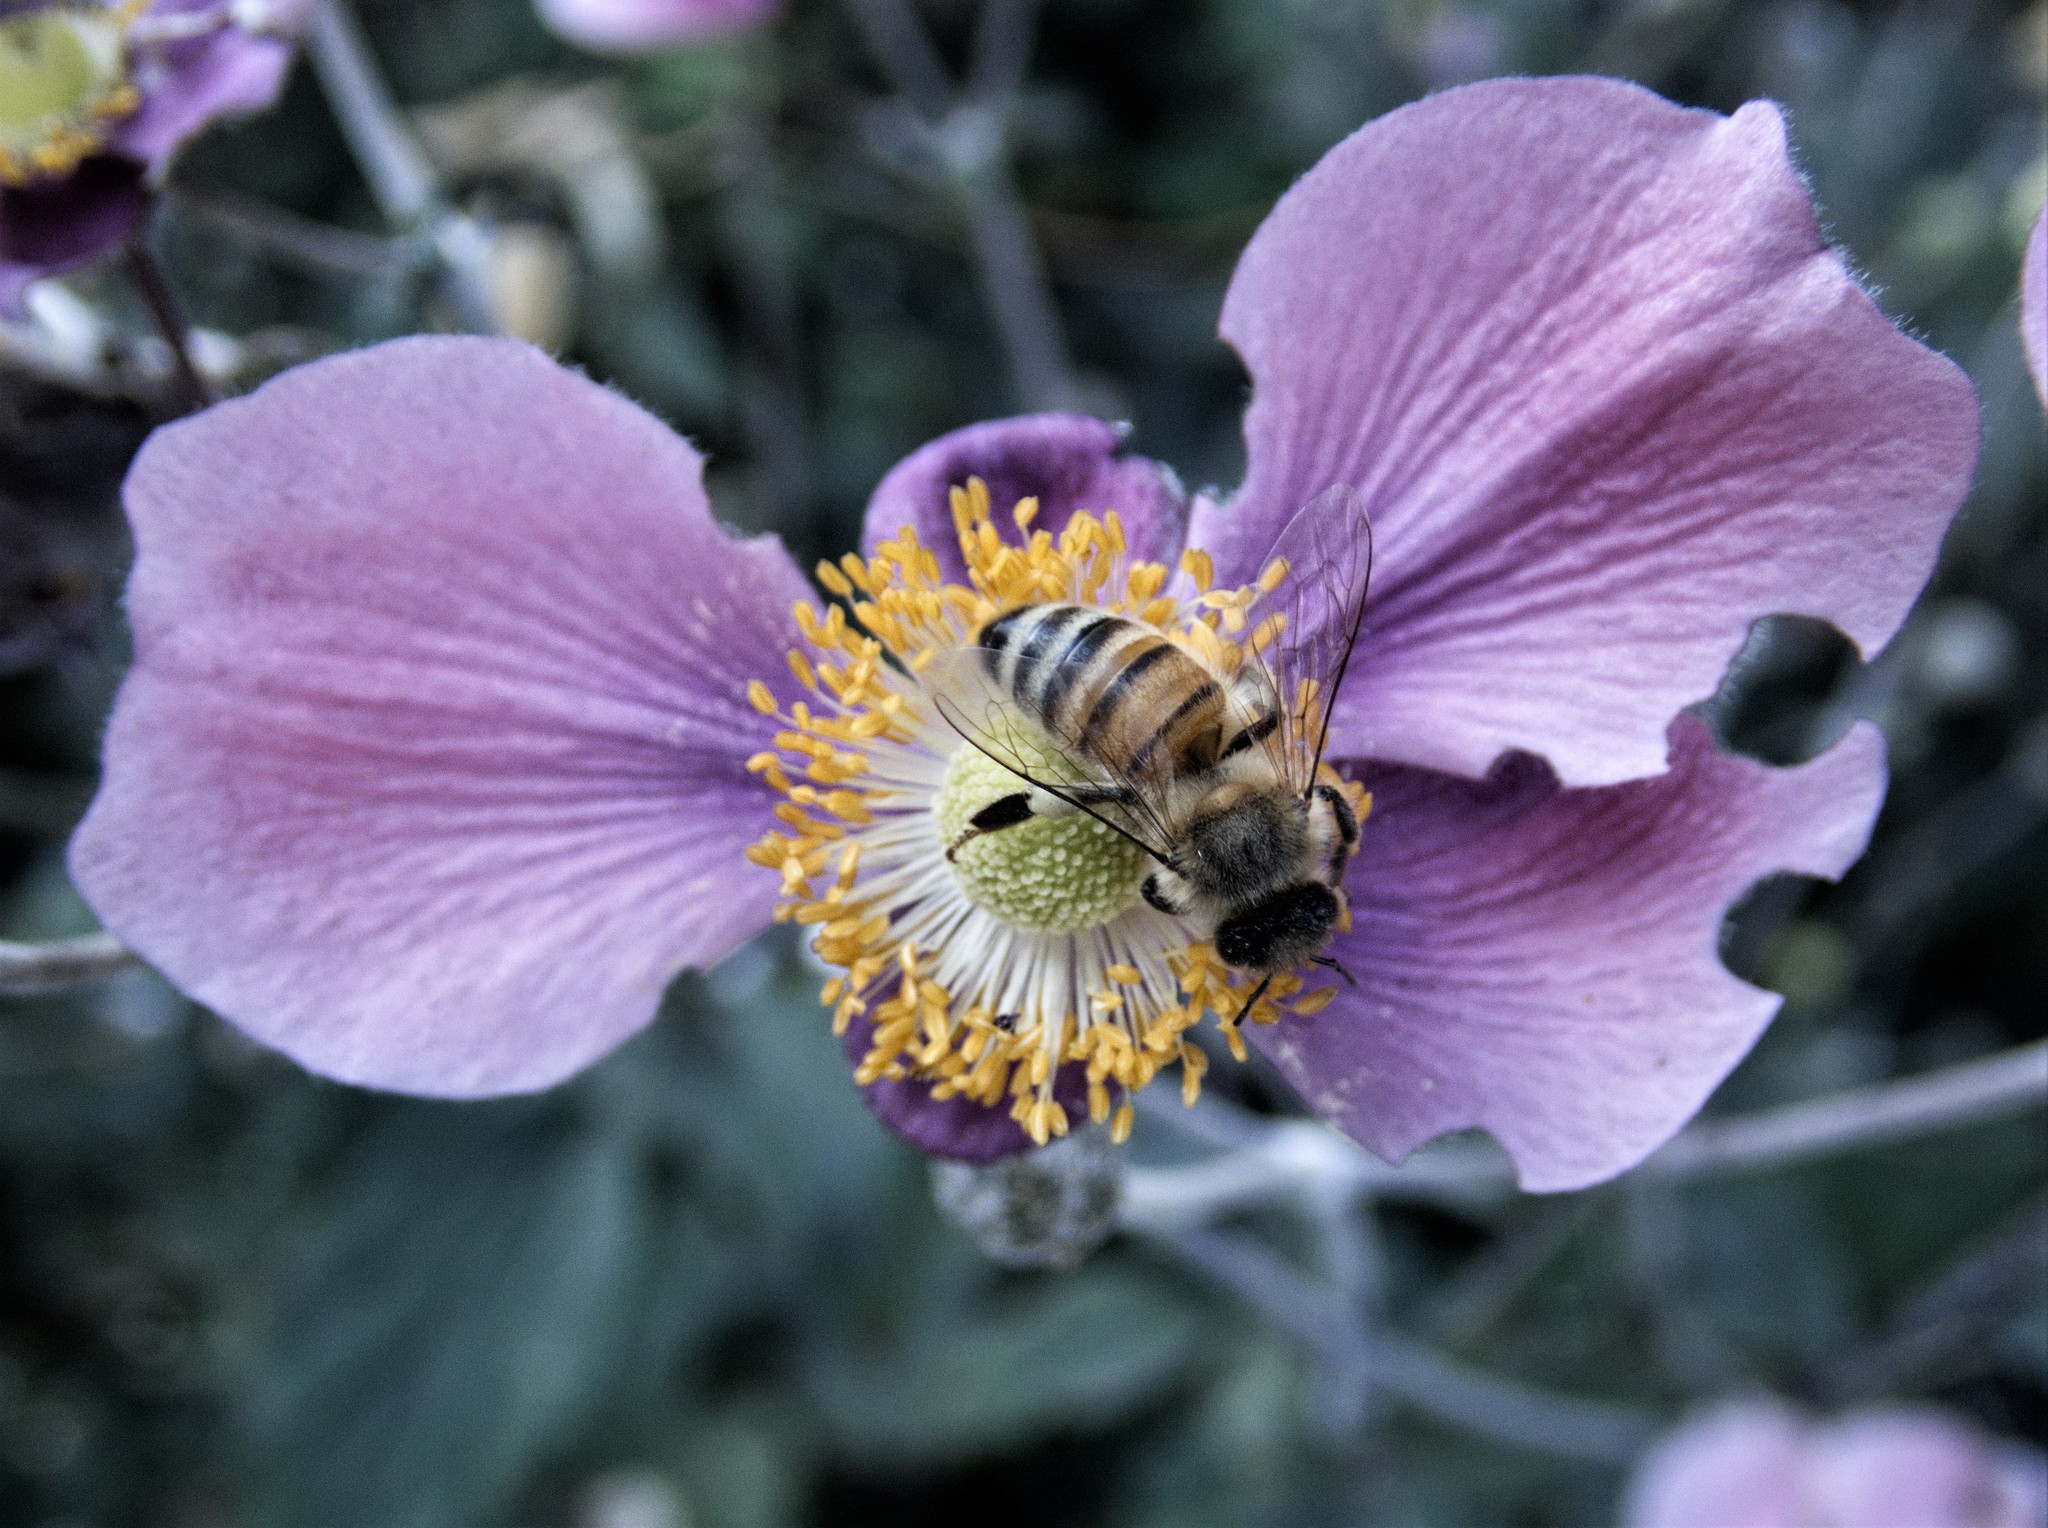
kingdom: Animalia
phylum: Arthropoda
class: Insecta
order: Hymenoptera
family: Apidae
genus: Apis
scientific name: Apis mellifera
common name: Honey bee
